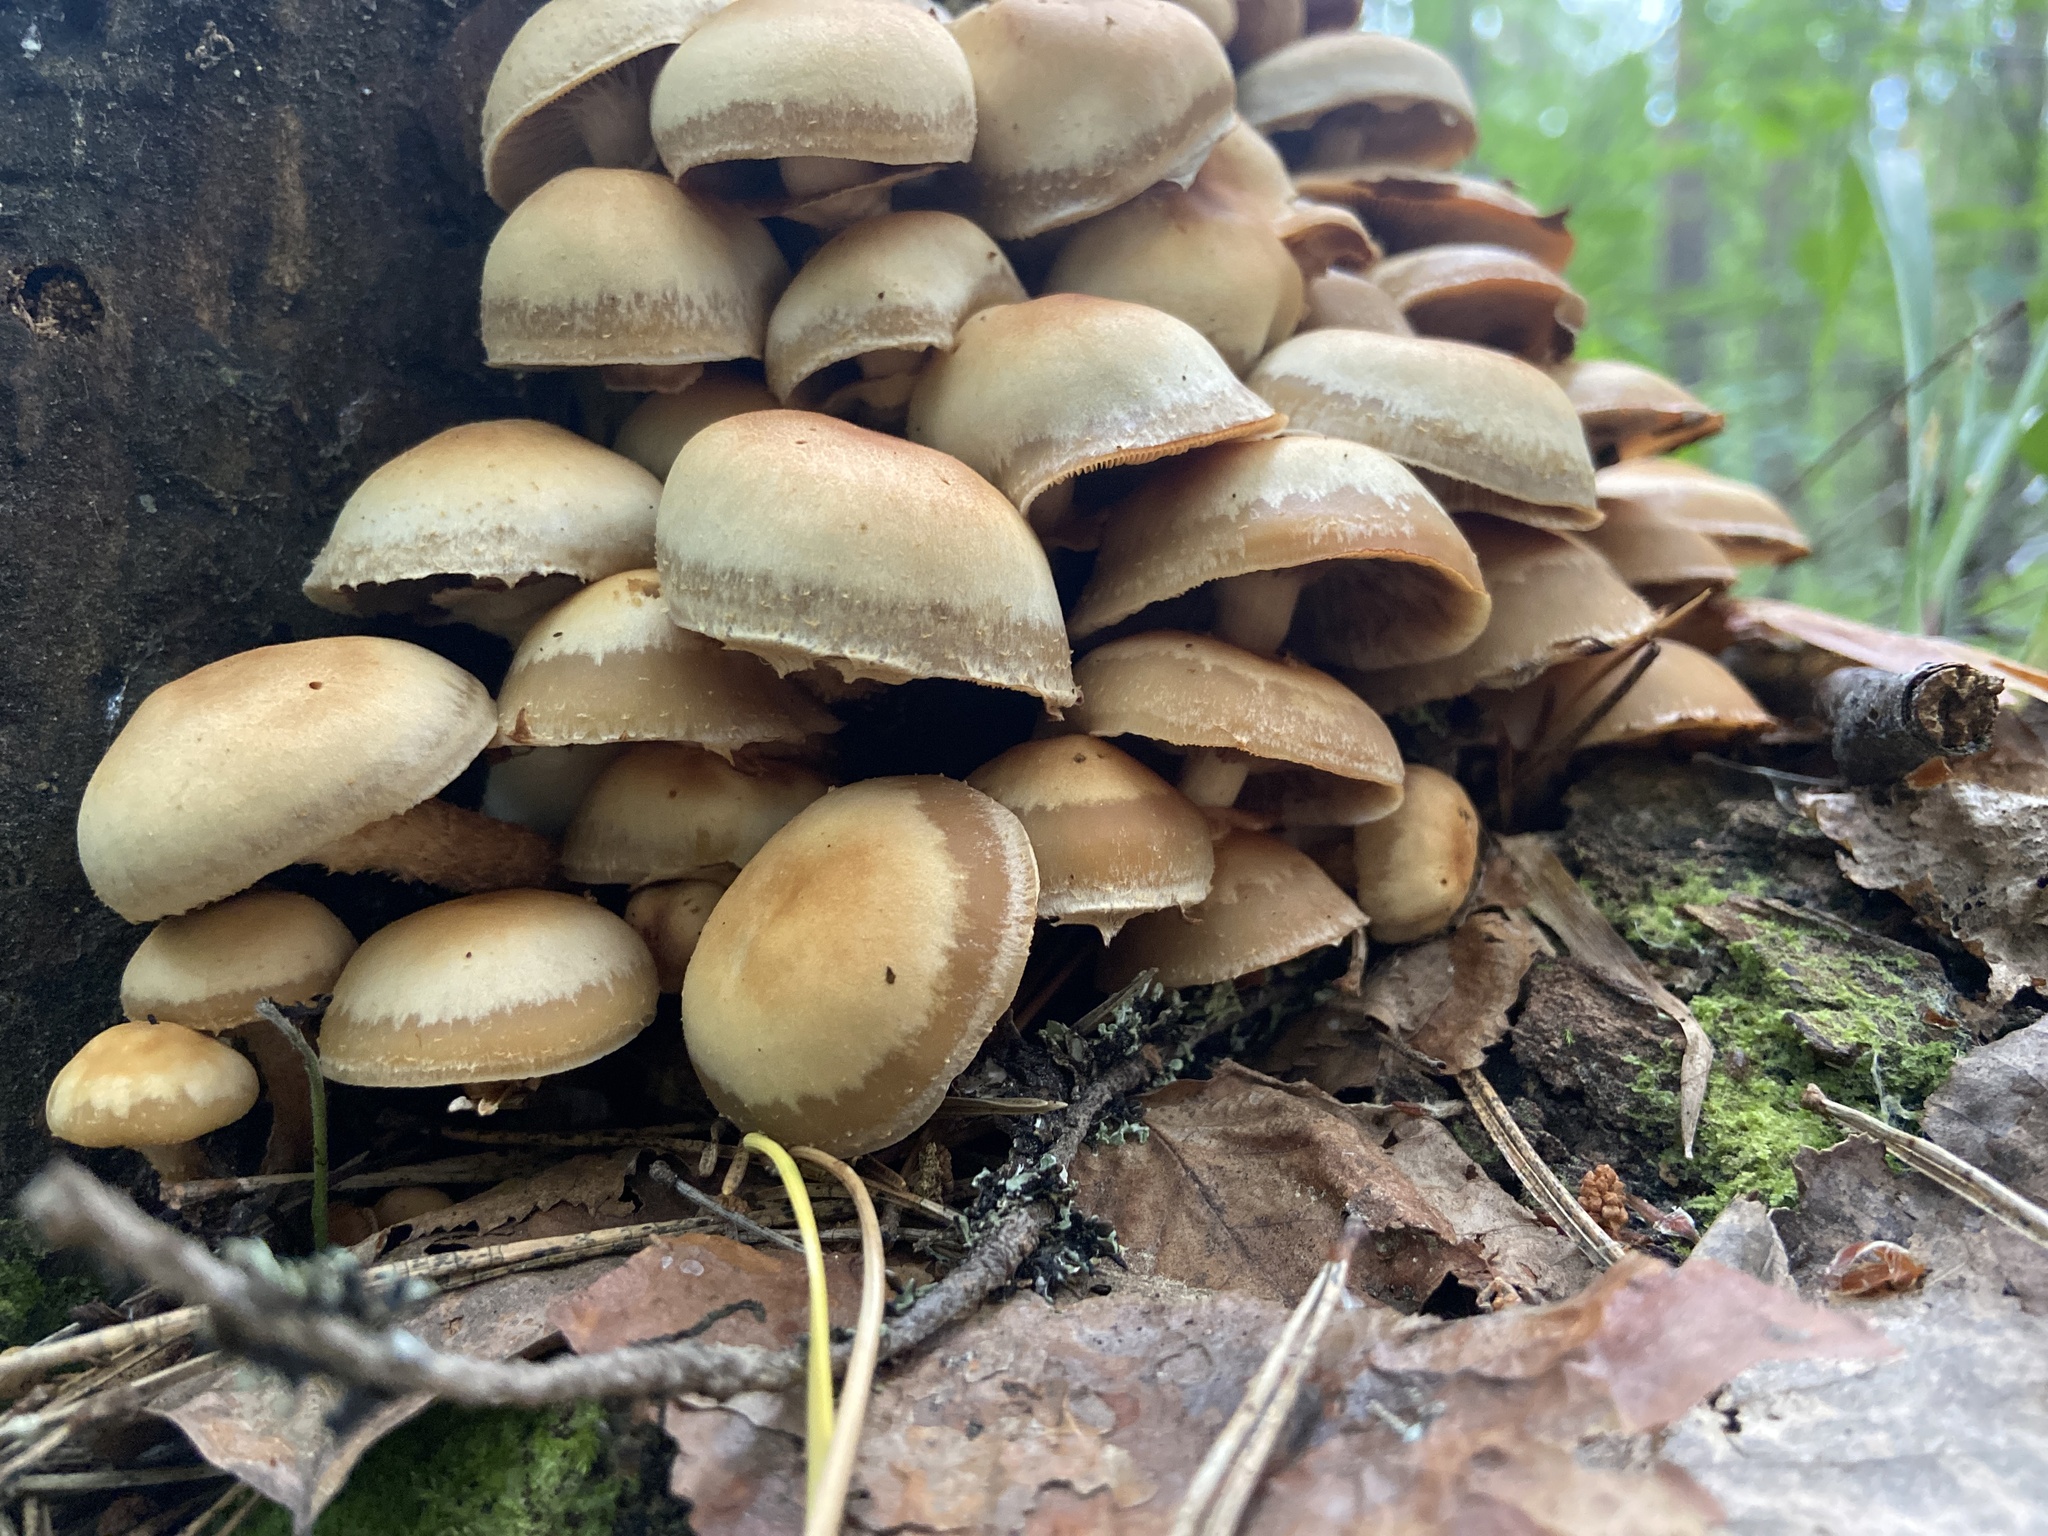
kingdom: Fungi
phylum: Basidiomycota
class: Agaricomycetes
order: Agaricales
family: Strophariaceae
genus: Kuehneromyces
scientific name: Kuehneromyces mutabilis
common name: Sheathed woodtuft
